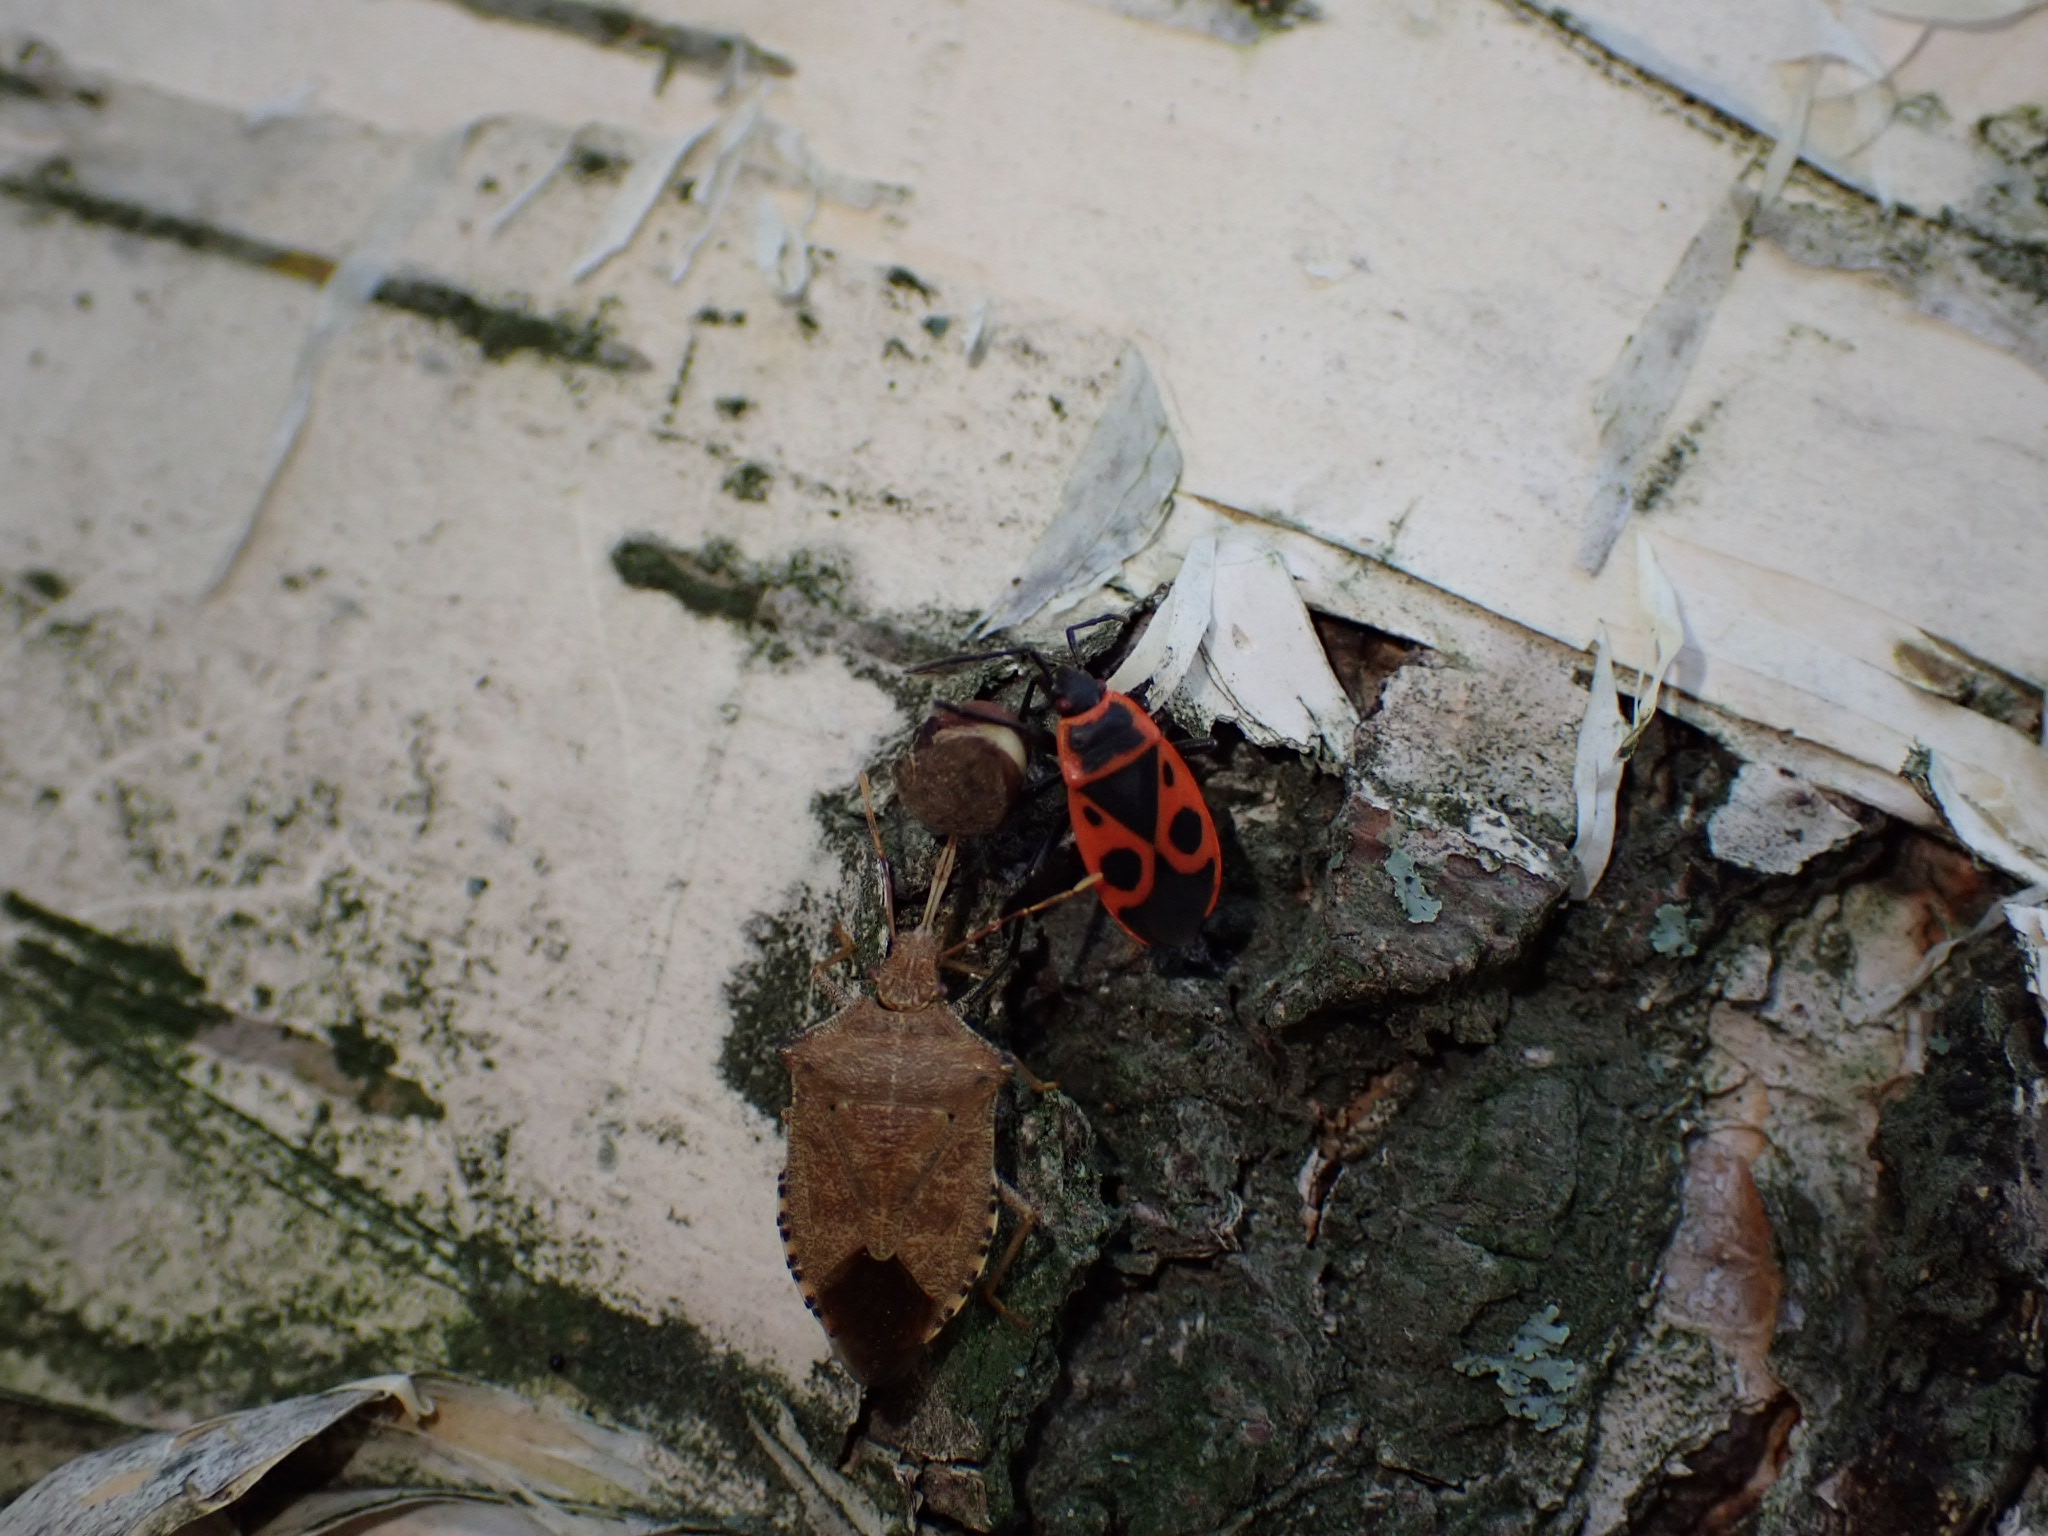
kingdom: Animalia
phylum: Arthropoda
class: Insecta
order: Hemiptera
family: Pyrrhocoridae
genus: Pyrrhocoris
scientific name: Pyrrhocoris apterus
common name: Firebug
